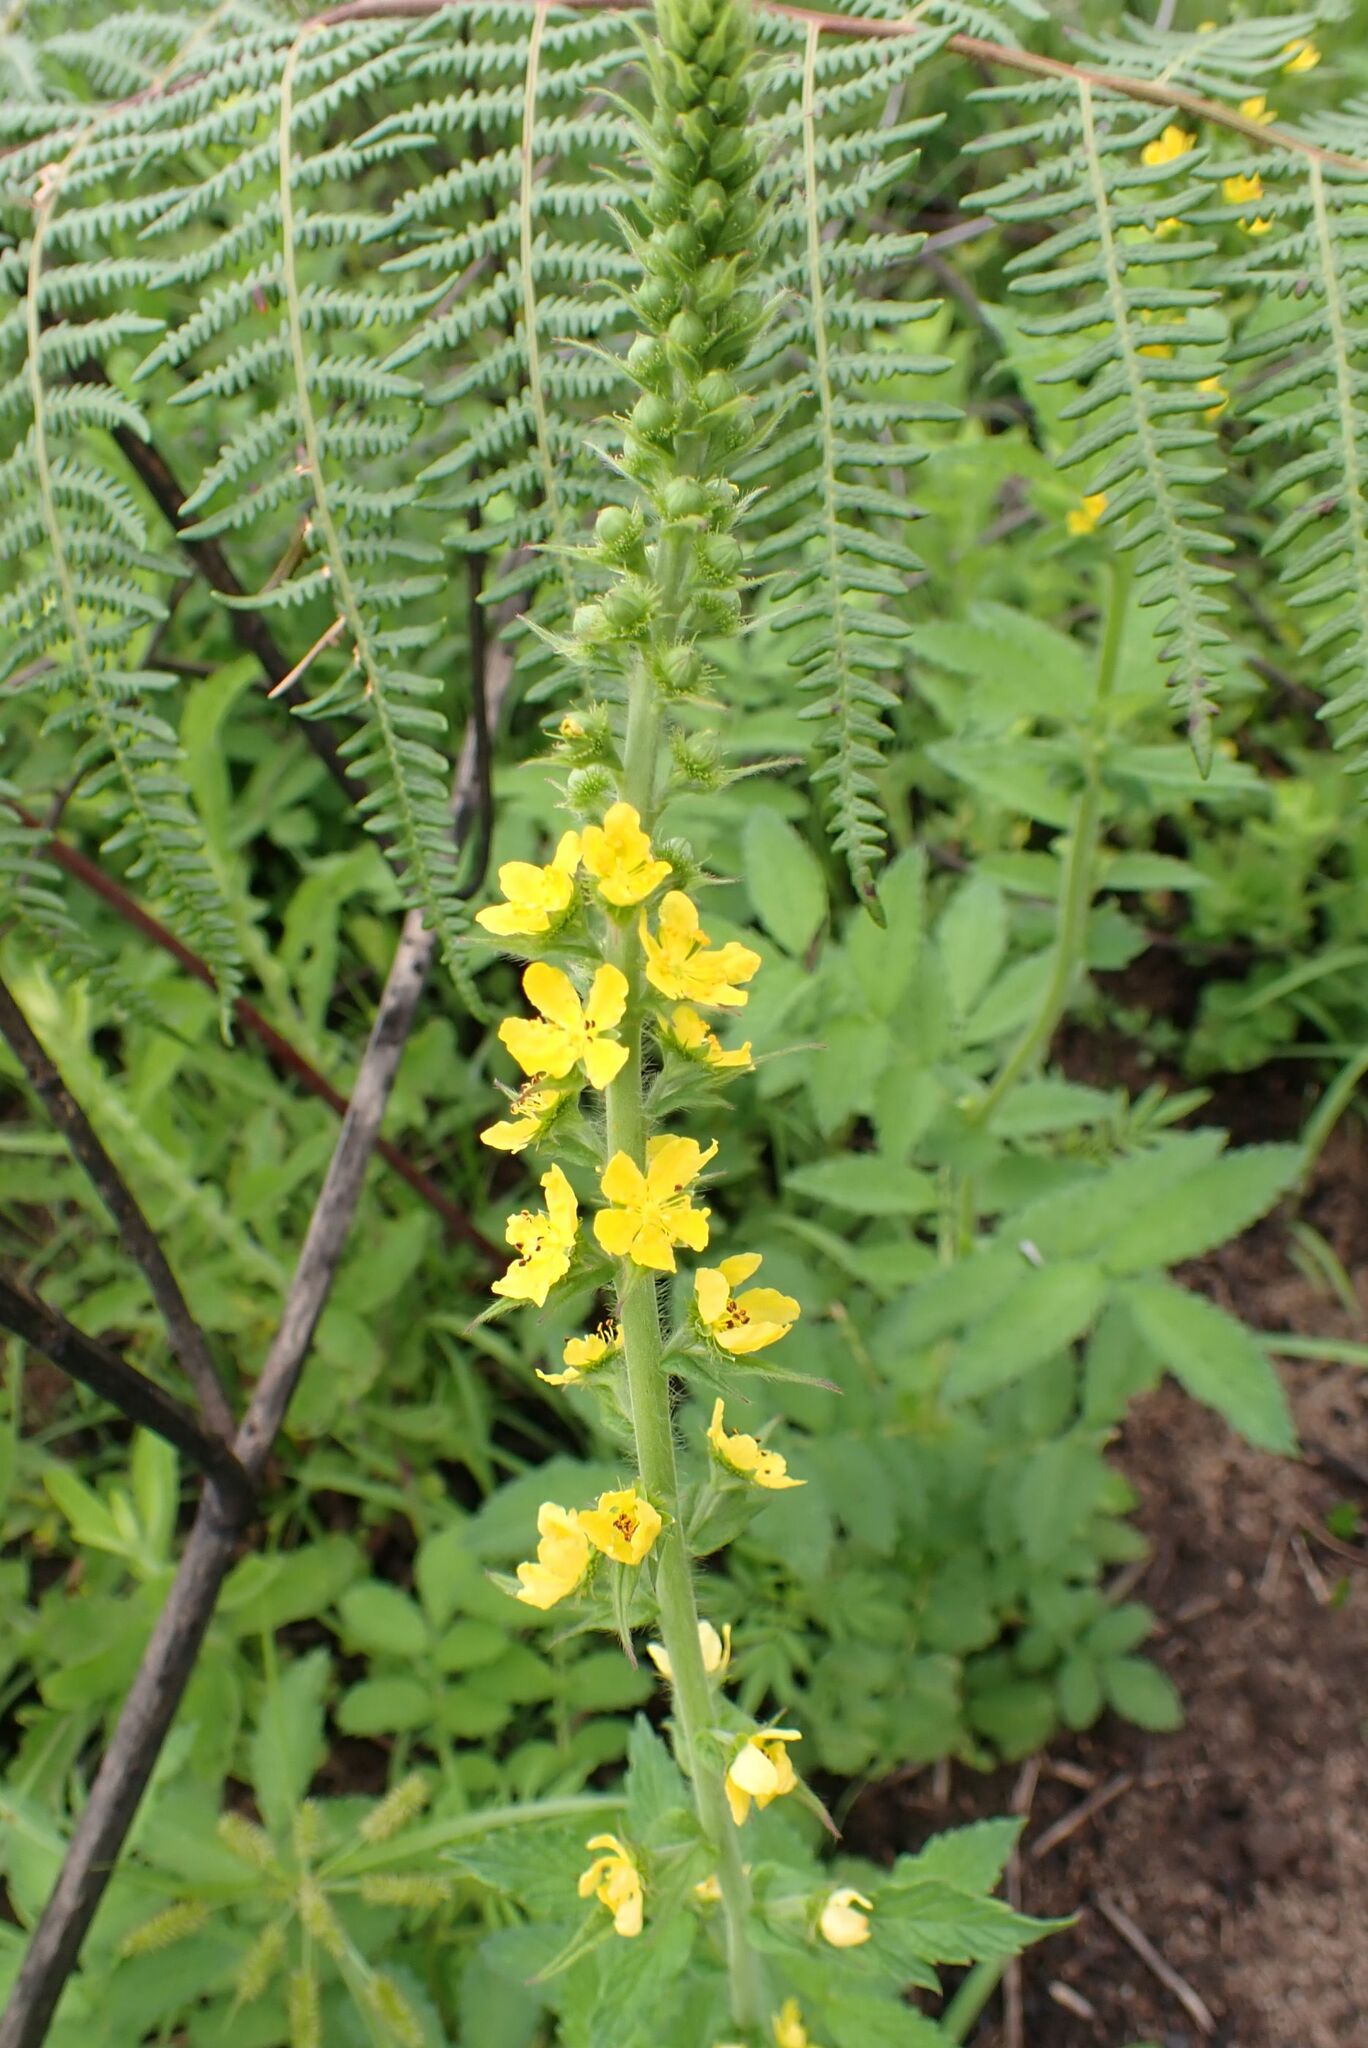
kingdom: Plantae
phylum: Tracheophyta
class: Magnoliopsida
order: Rosales
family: Rosaceae
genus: Agrimonia
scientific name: Agrimonia bracteata
